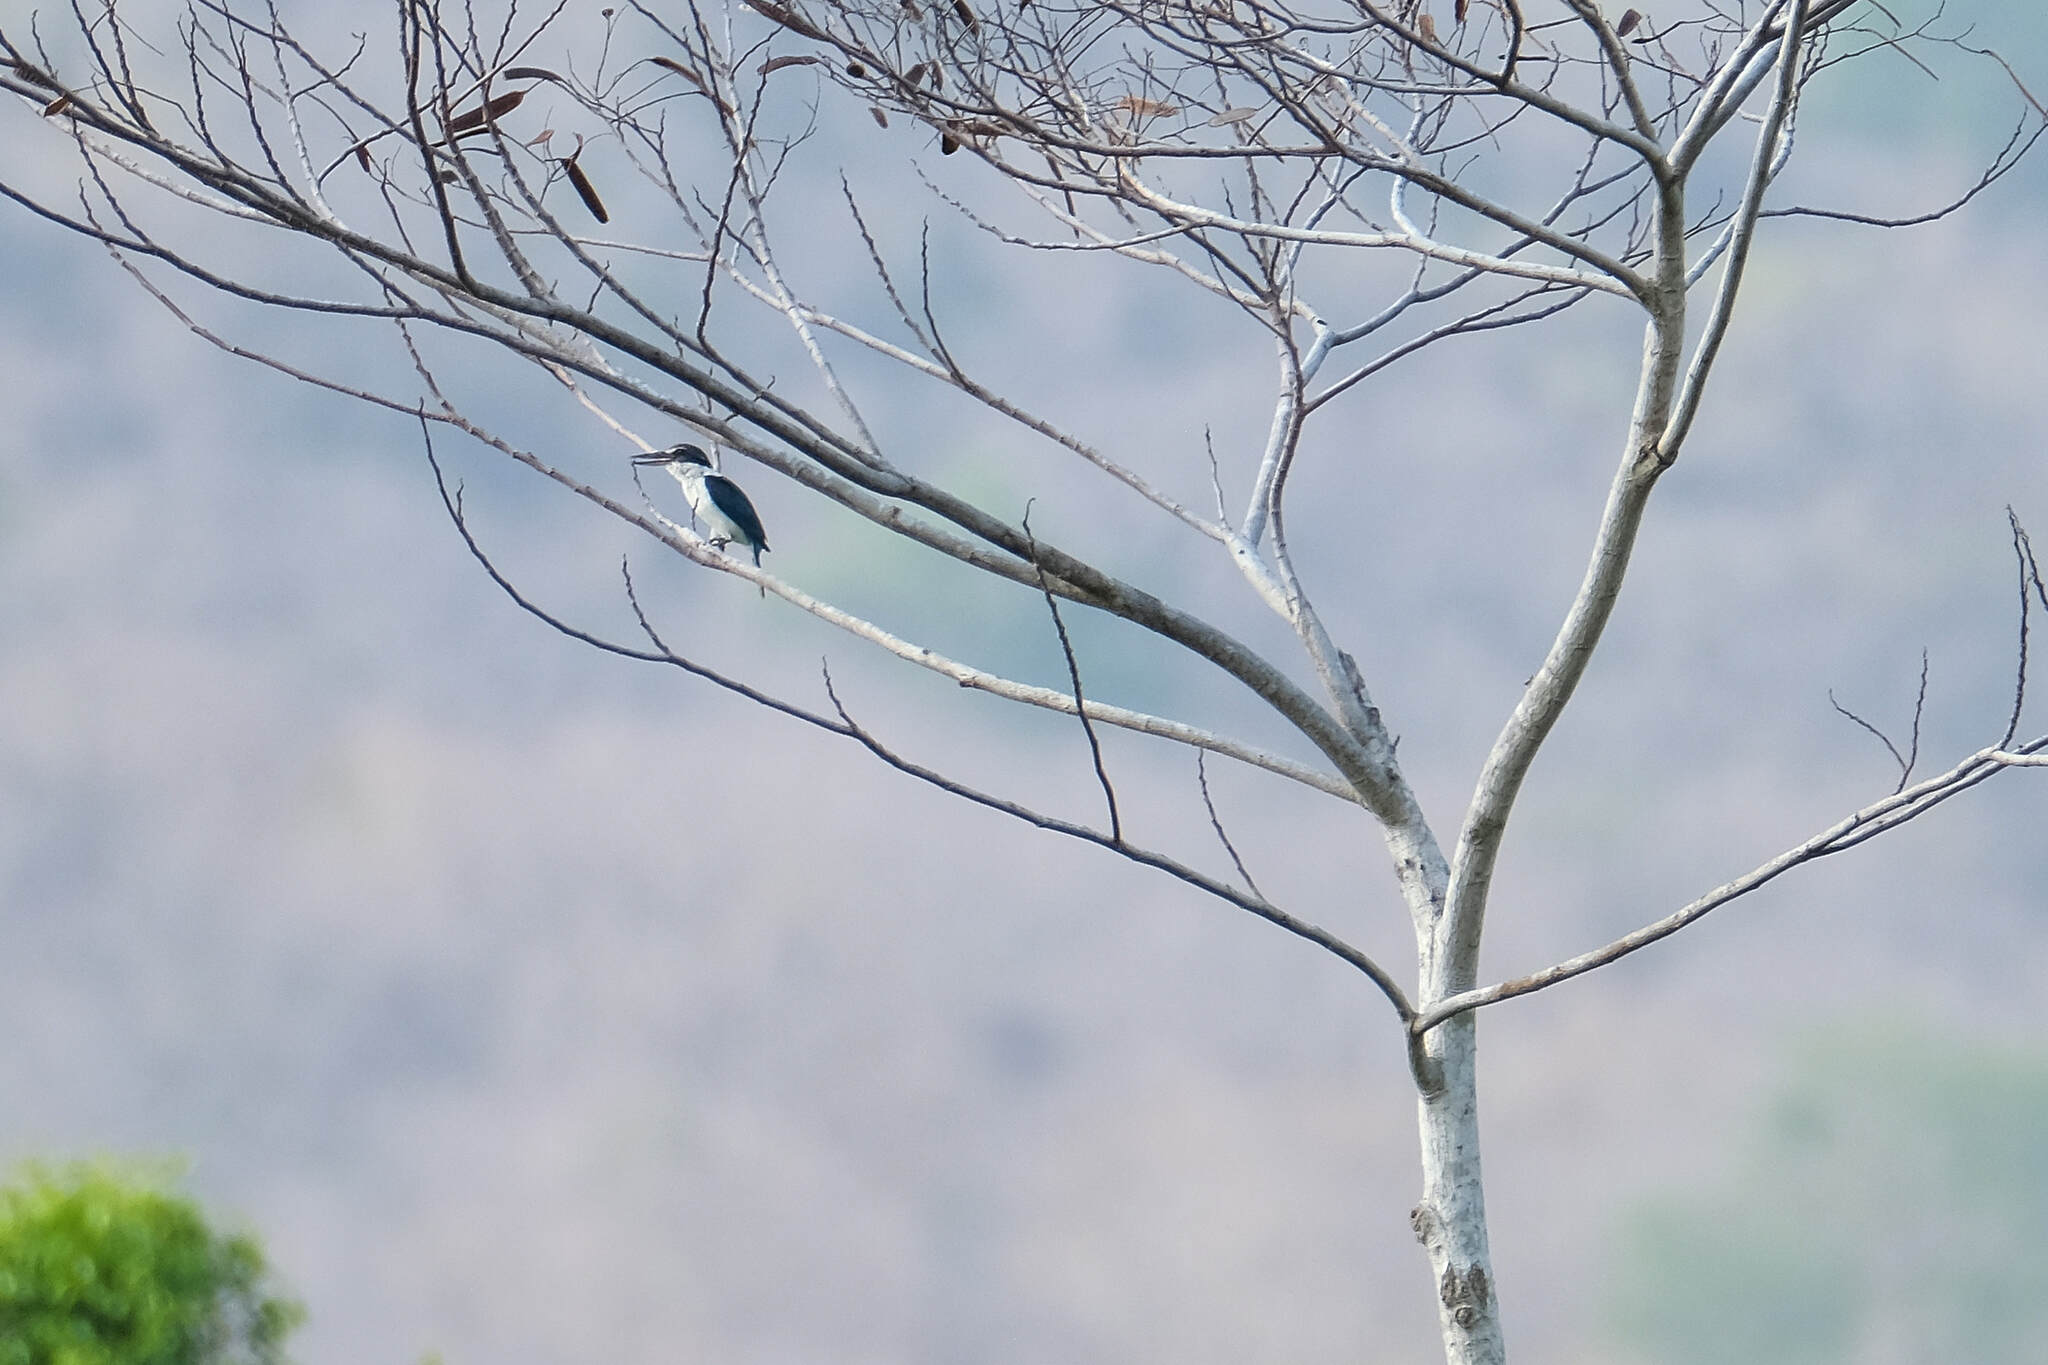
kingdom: Animalia
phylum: Chordata
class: Aves
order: Coraciiformes
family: Alcedinidae
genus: Todiramphus
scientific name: Todiramphus chloris
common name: Collared kingfisher
